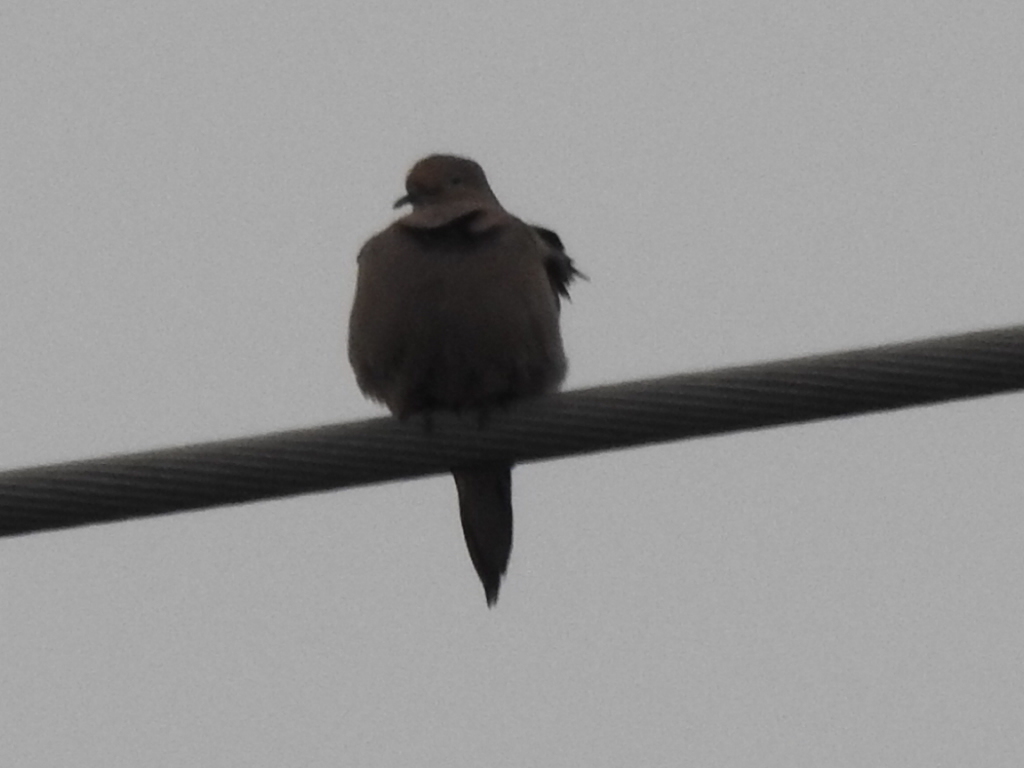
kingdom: Animalia
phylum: Chordata
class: Aves
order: Columbiformes
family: Columbidae
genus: Zenaida
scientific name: Zenaida macroura
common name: Mourning dove
